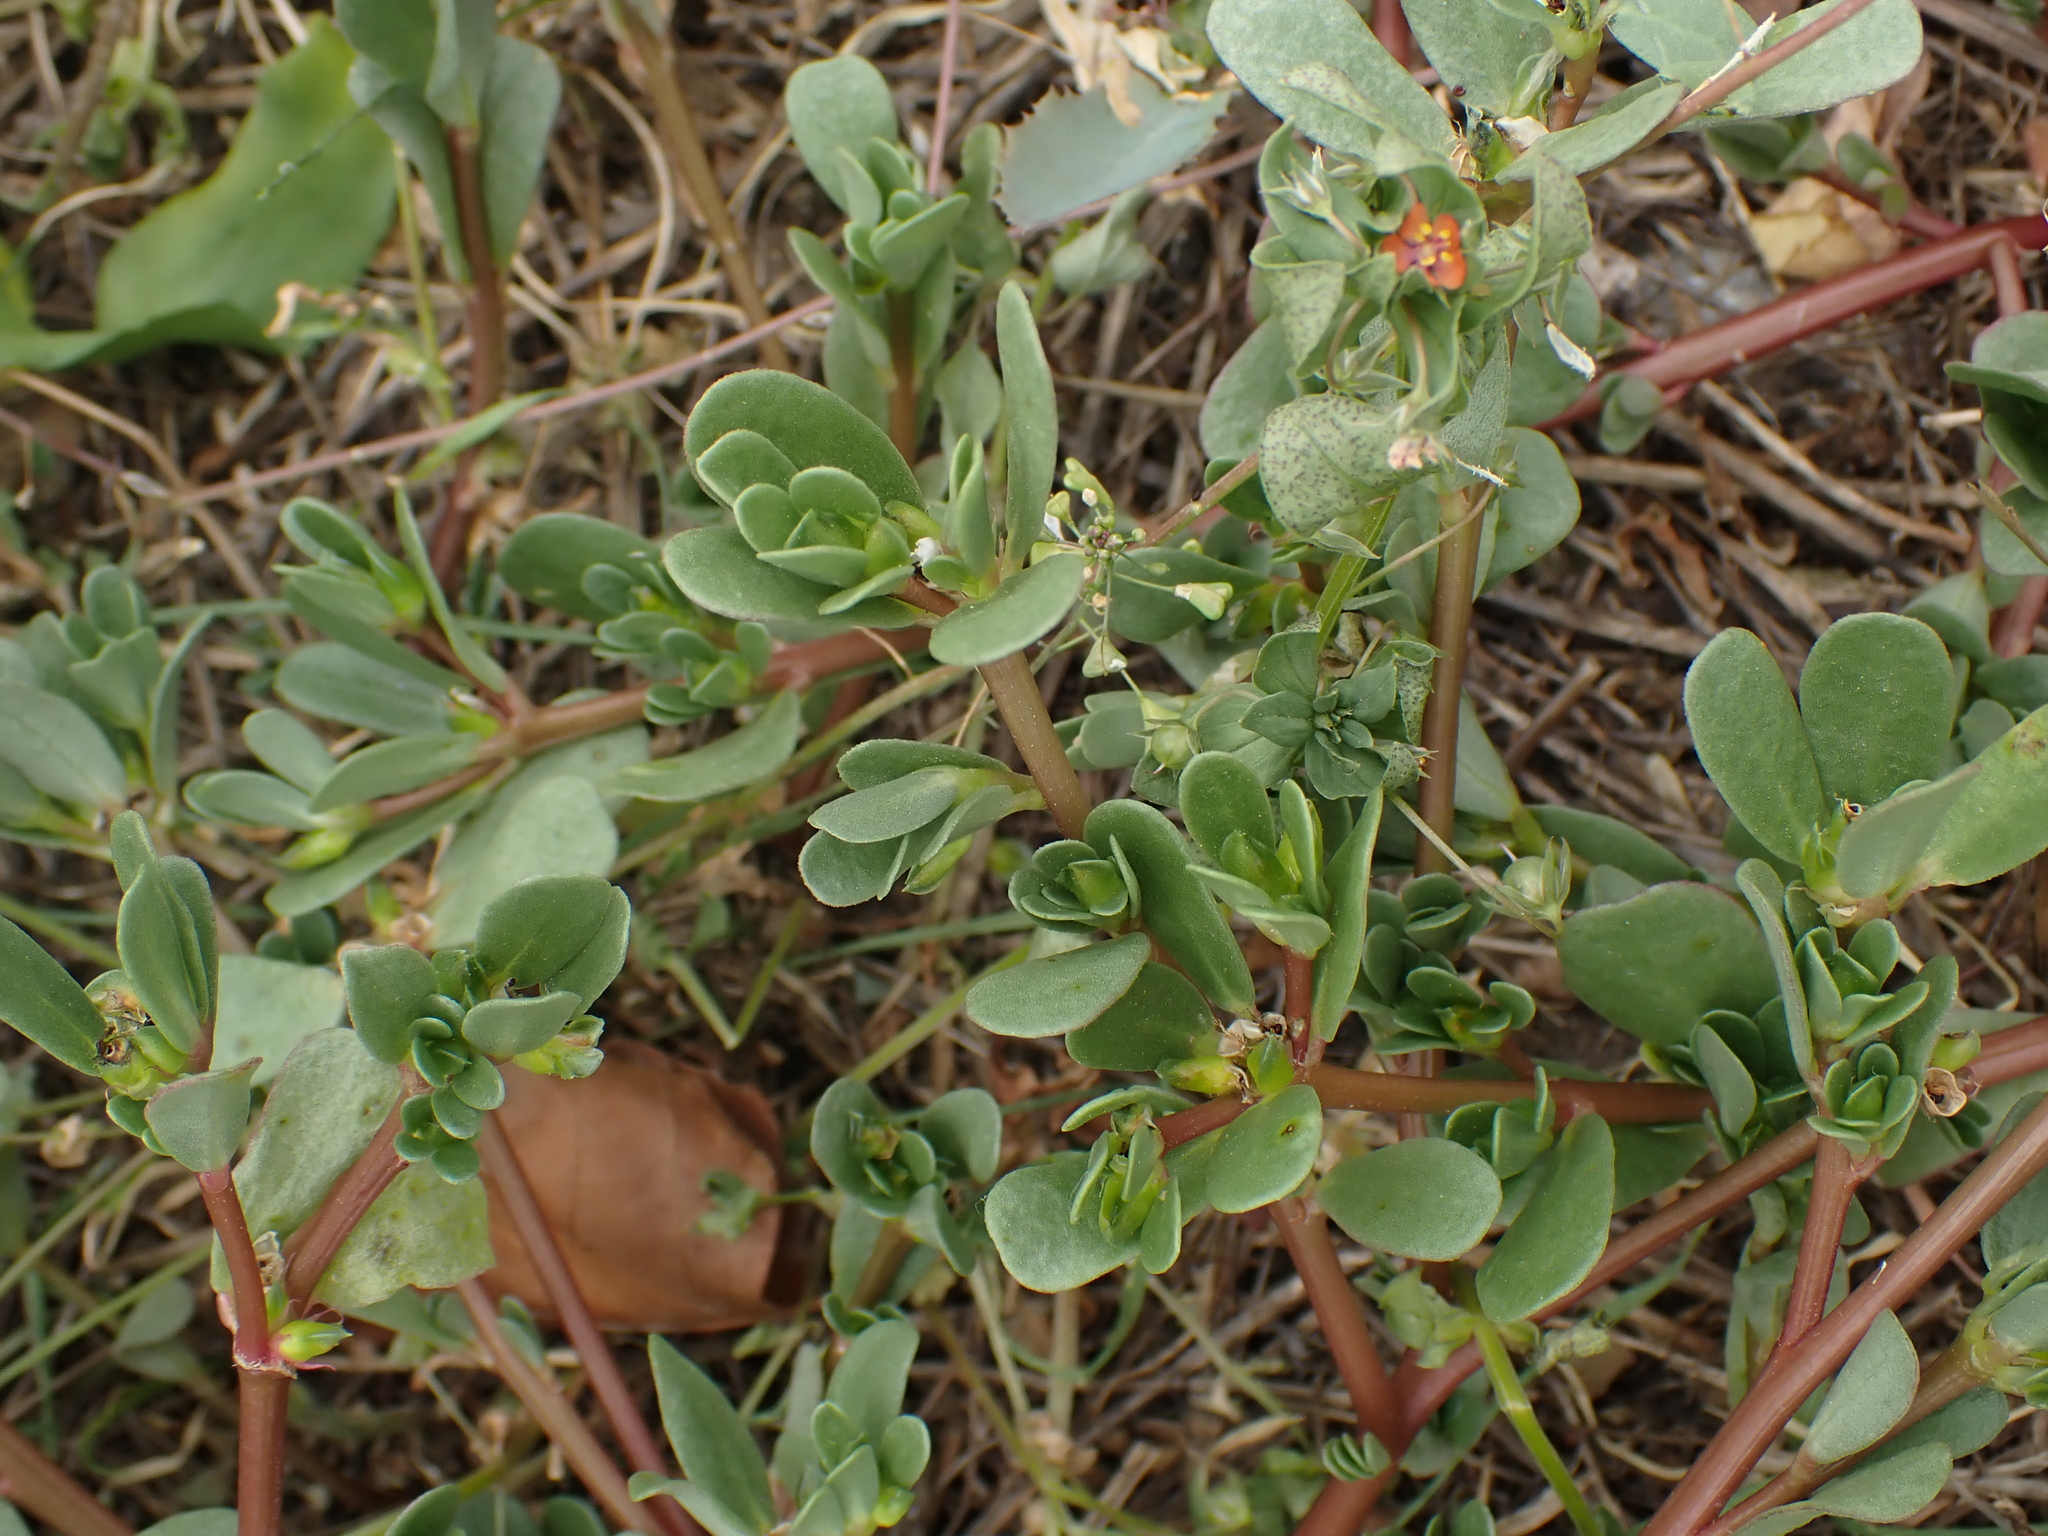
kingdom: Plantae
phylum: Tracheophyta
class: Magnoliopsida
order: Caryophyllales
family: Portulacaceae
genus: Portulaca
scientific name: Portulaca oleracea
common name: Common purslane
